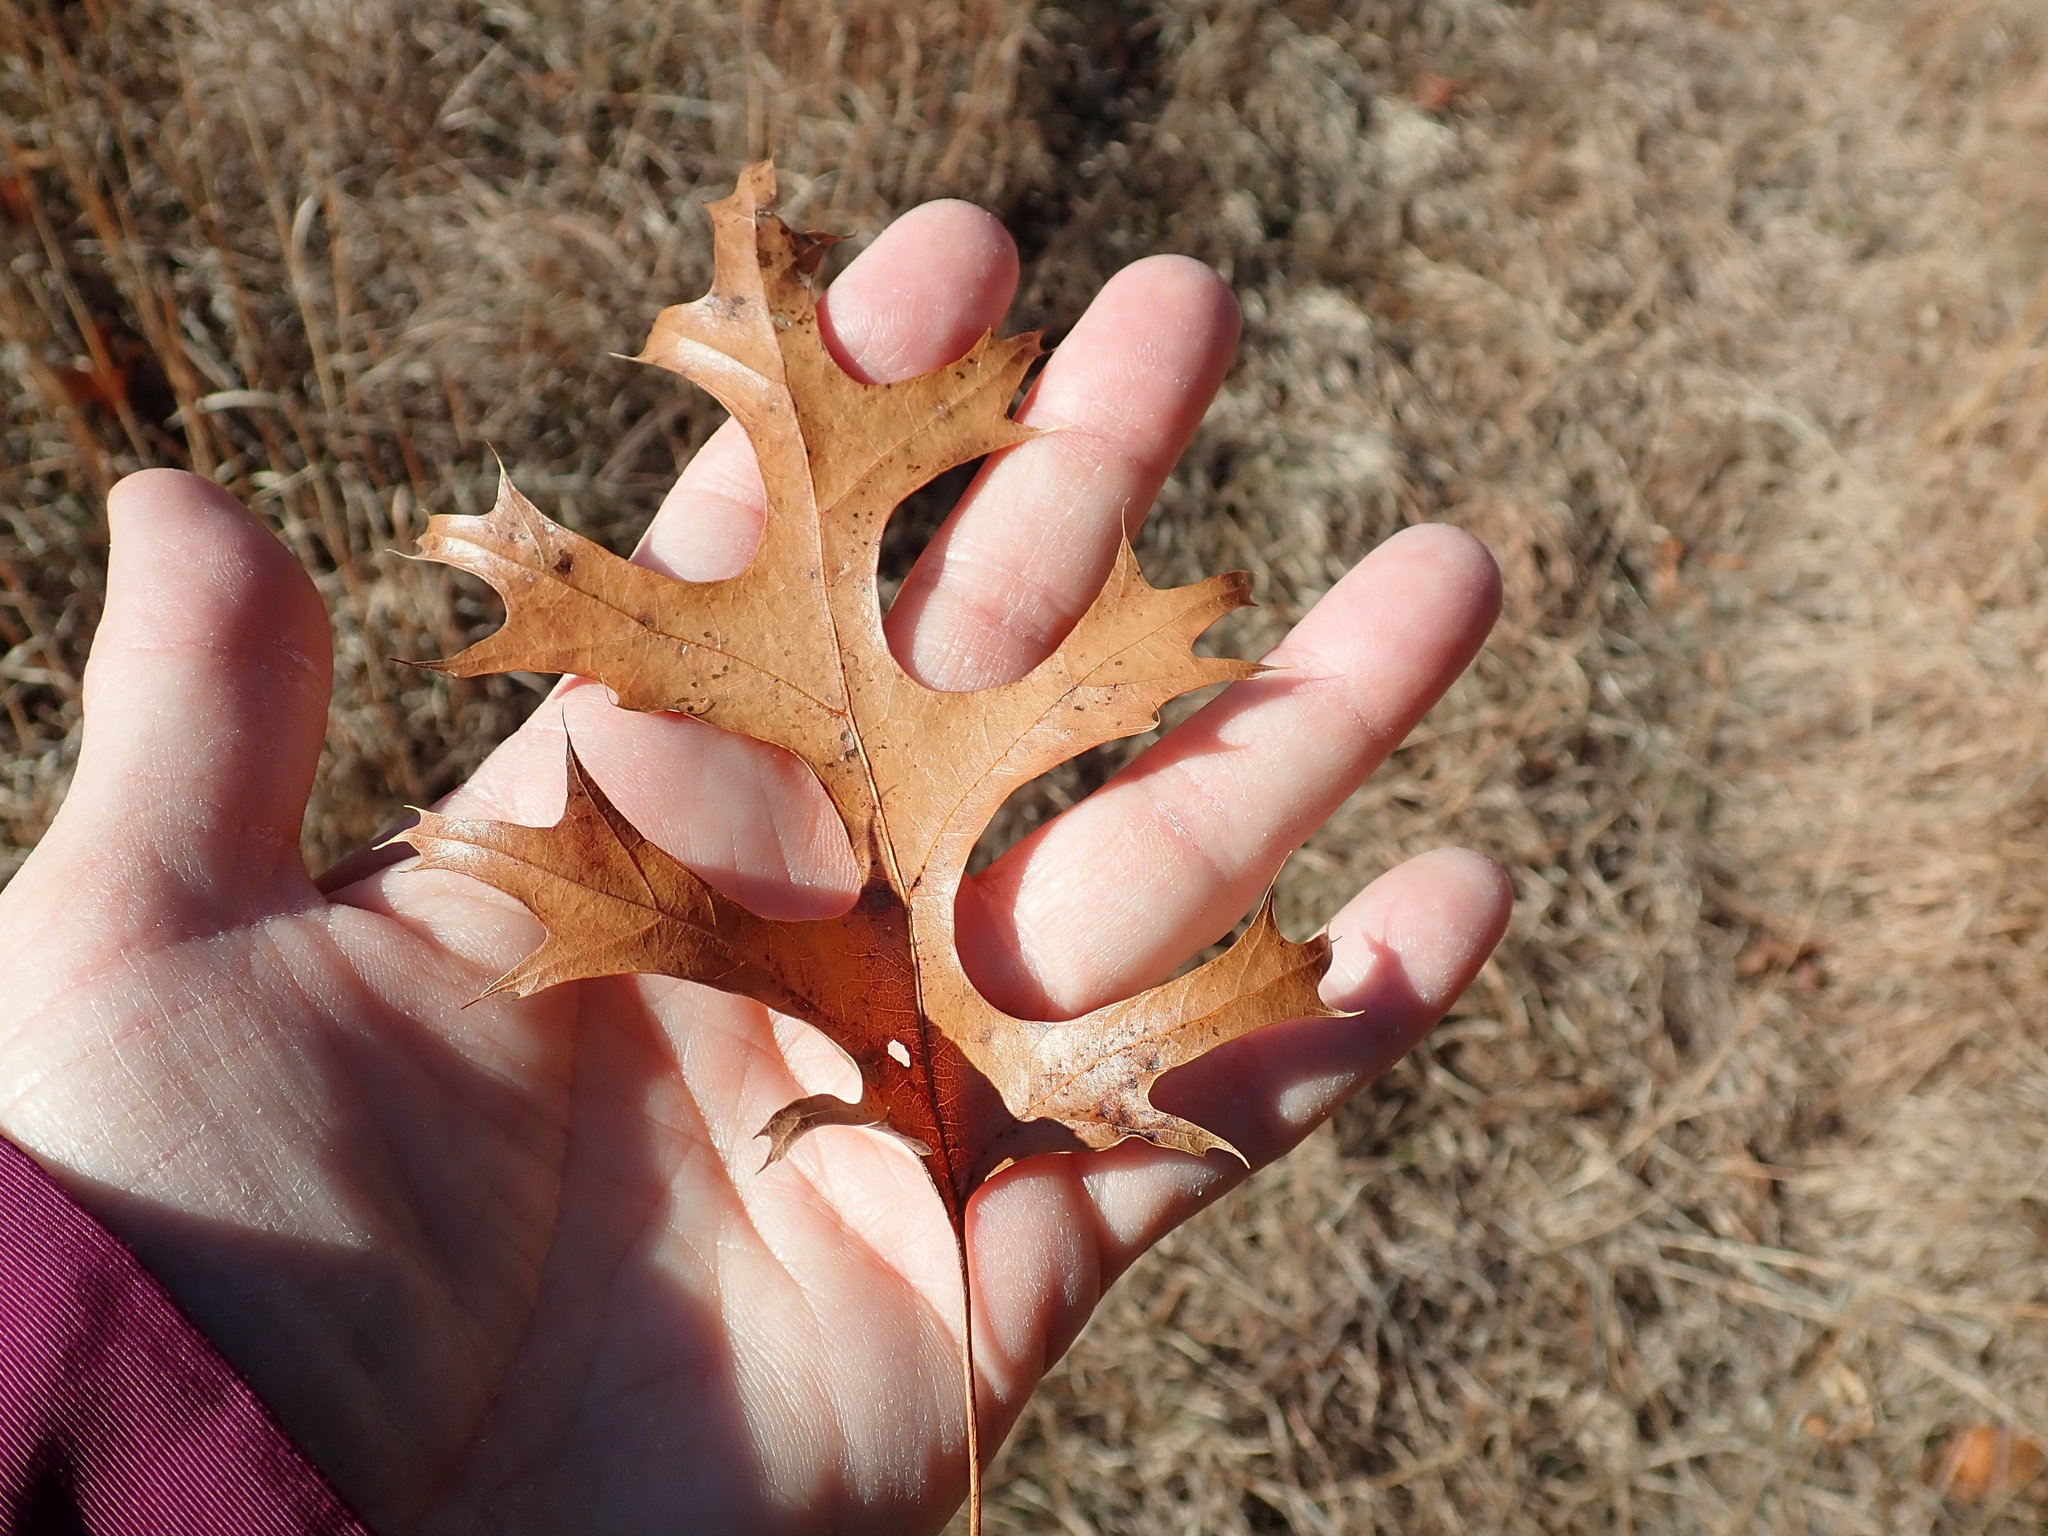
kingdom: Plantae
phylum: Tracheophyta
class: Magnoliopsida
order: Fagales
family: Fagaceae
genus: Quercus
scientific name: Quercus coccinea
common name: Scarlet oak
